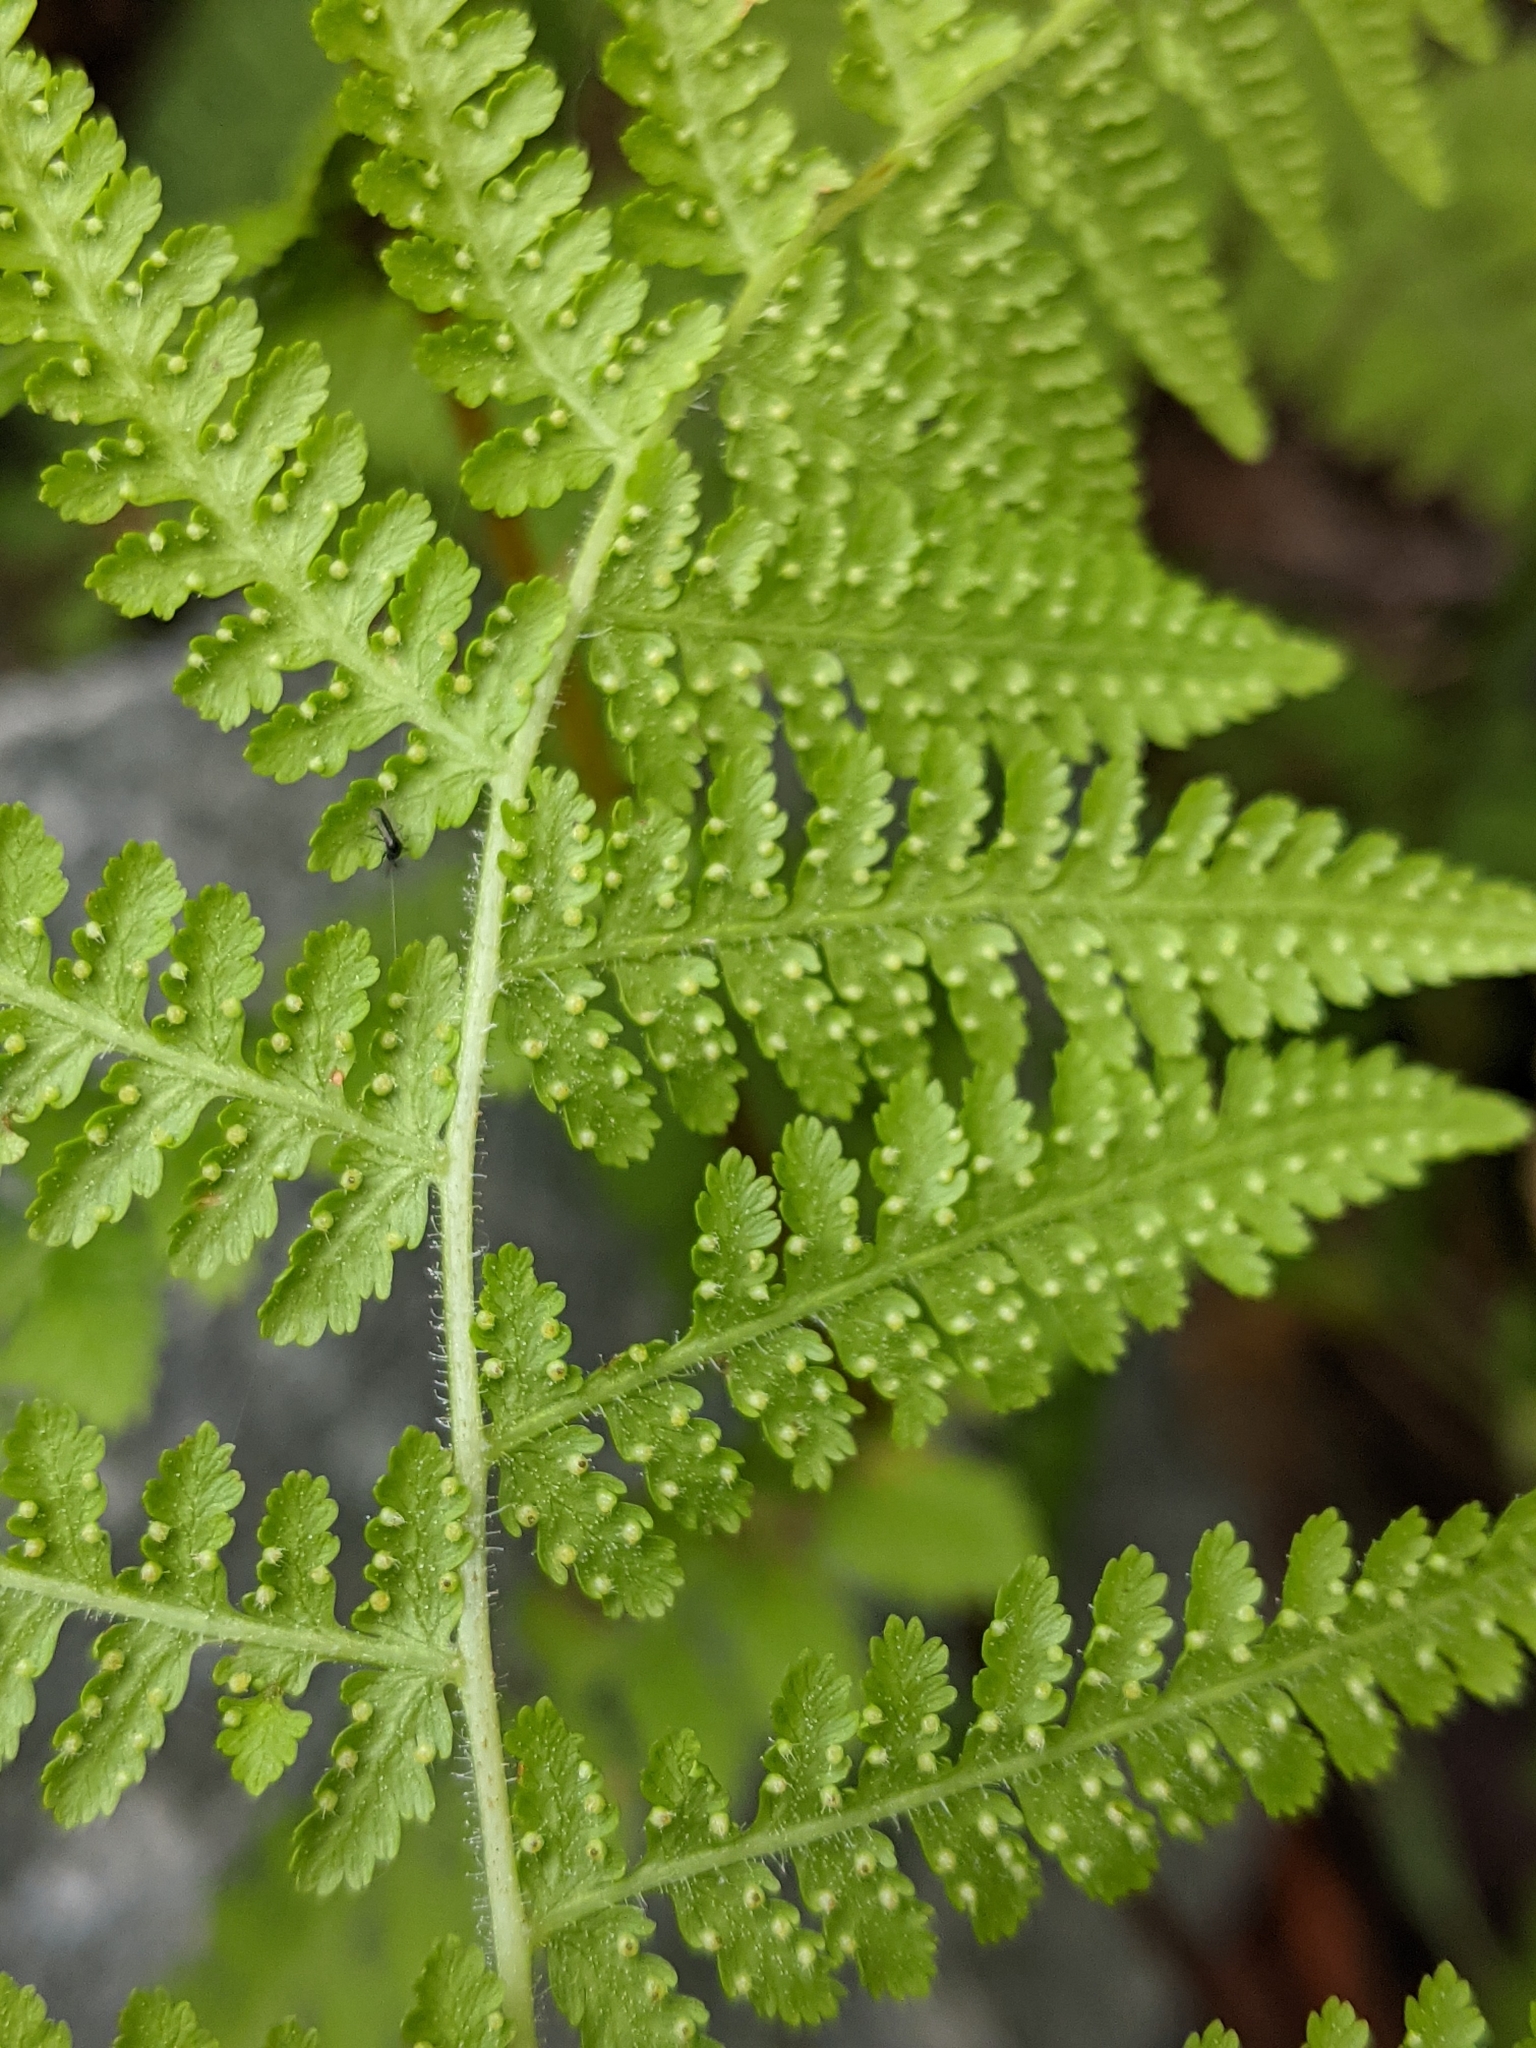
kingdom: Plantae
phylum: Tracheophyta
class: Polypodiopsida
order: Polypodiales
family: Dennstaedtiaceae
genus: Sitobolium
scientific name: Sitobolium punctilobum
